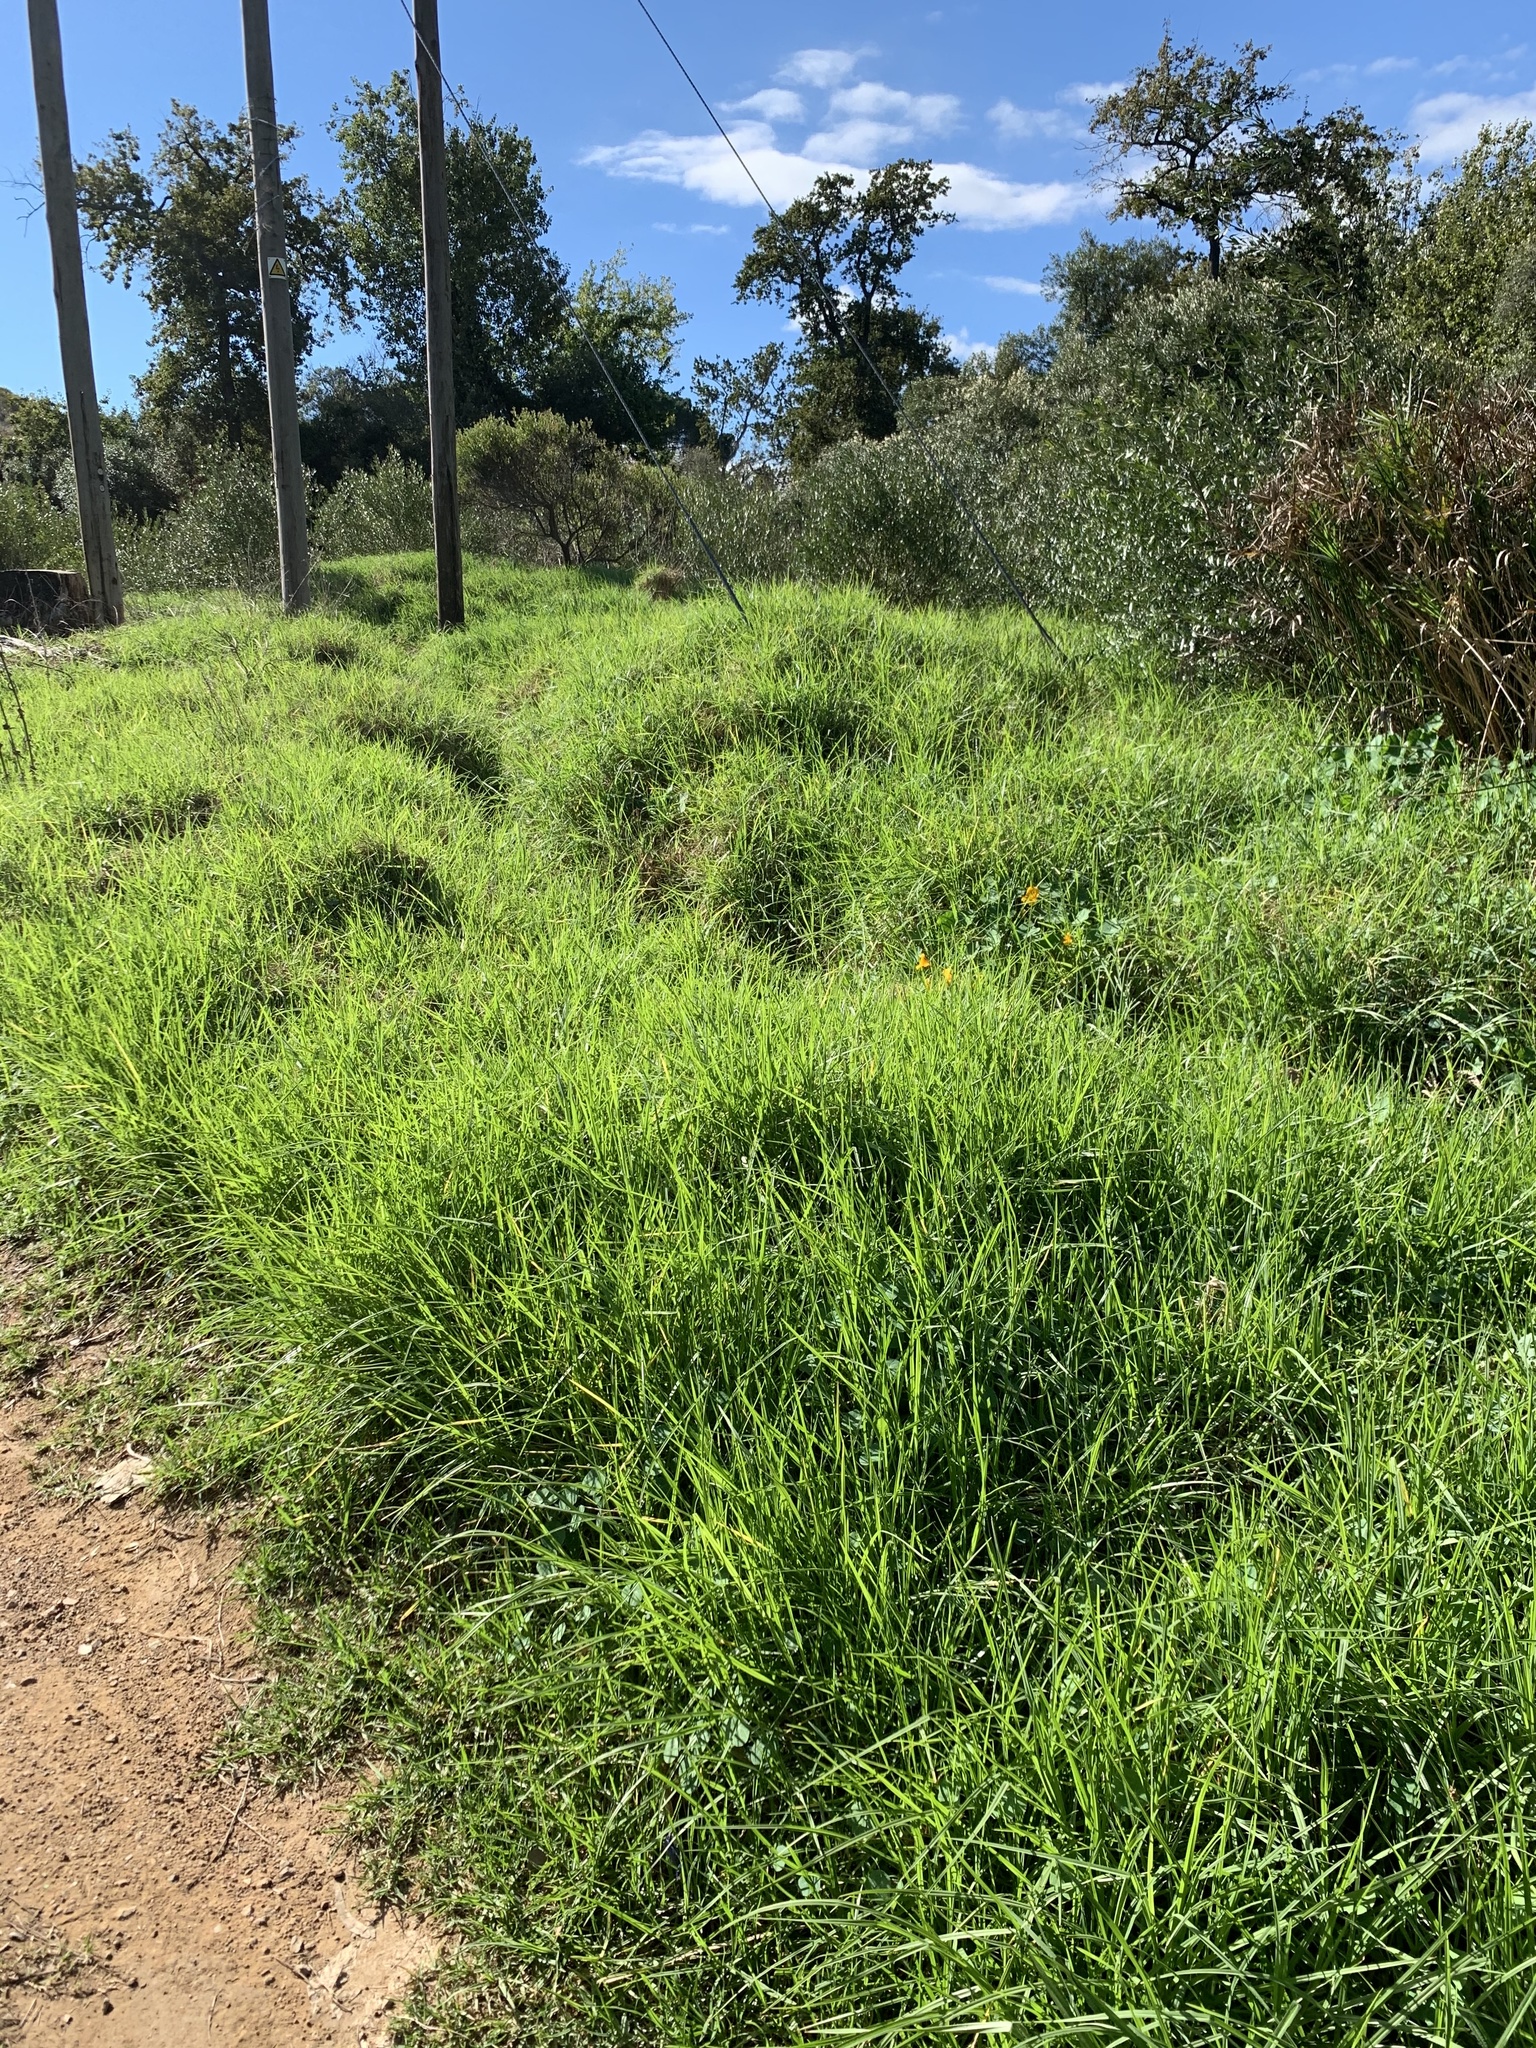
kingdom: Plantae
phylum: Tracheophyta
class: Liliopsida
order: Poales
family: Poaceae
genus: Cenchrus
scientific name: Cenchrus clandestinus
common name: Kikuyugrass
